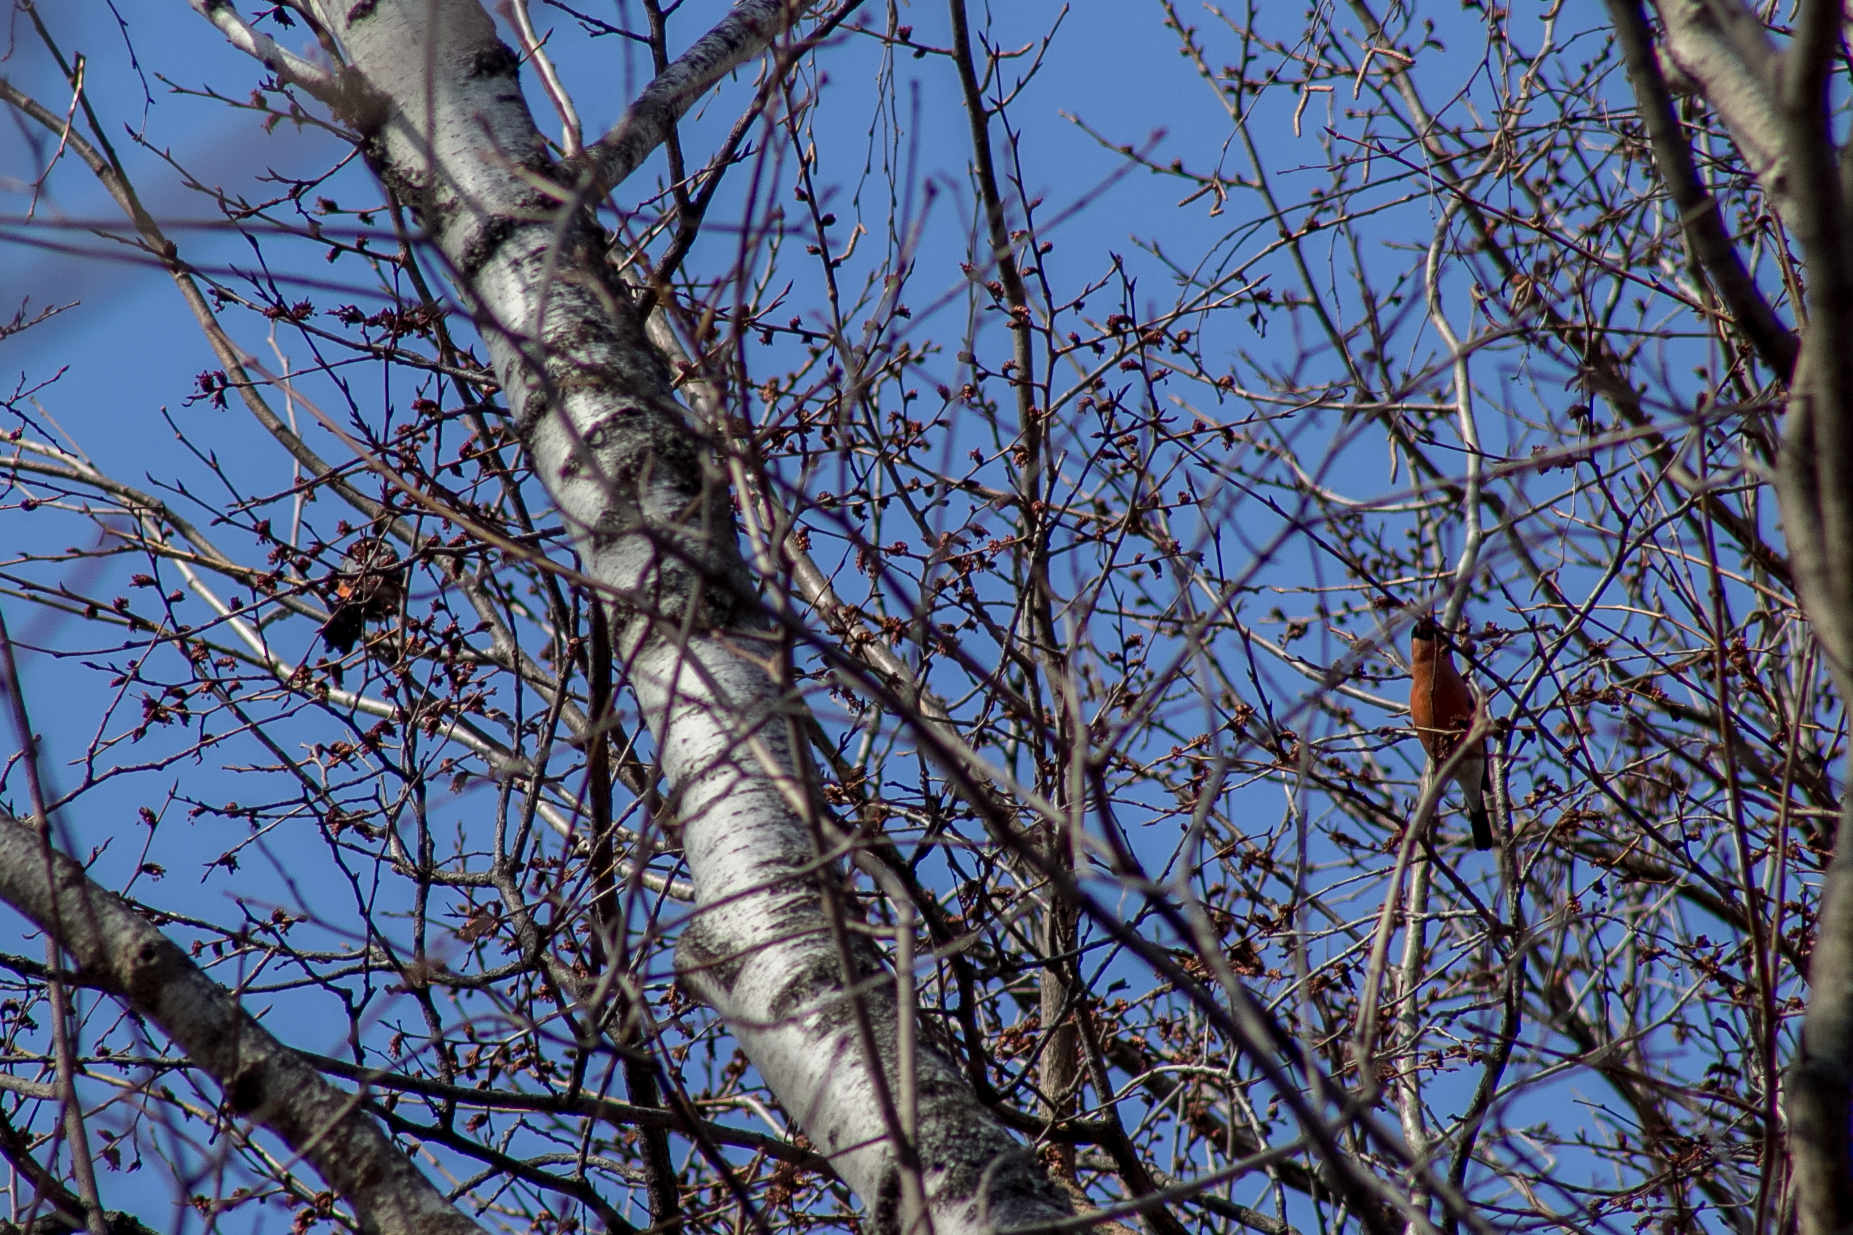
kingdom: Animalia
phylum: Chordata
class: Aves
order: Passeriformes
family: Fringillidae
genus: Pyrrhula
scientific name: Pyrrhula pyrrhula
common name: Eurasian bullfinch
